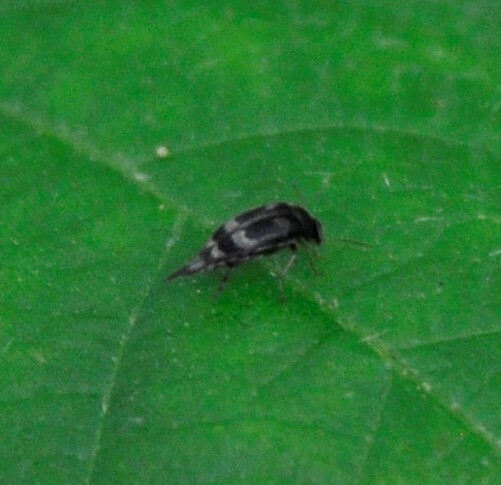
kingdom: Animalia
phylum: Arthropoda
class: Insecta
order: Coleoptera
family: Mordellidae
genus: Falsomordellistena
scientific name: Falsomordellistena hebraica
